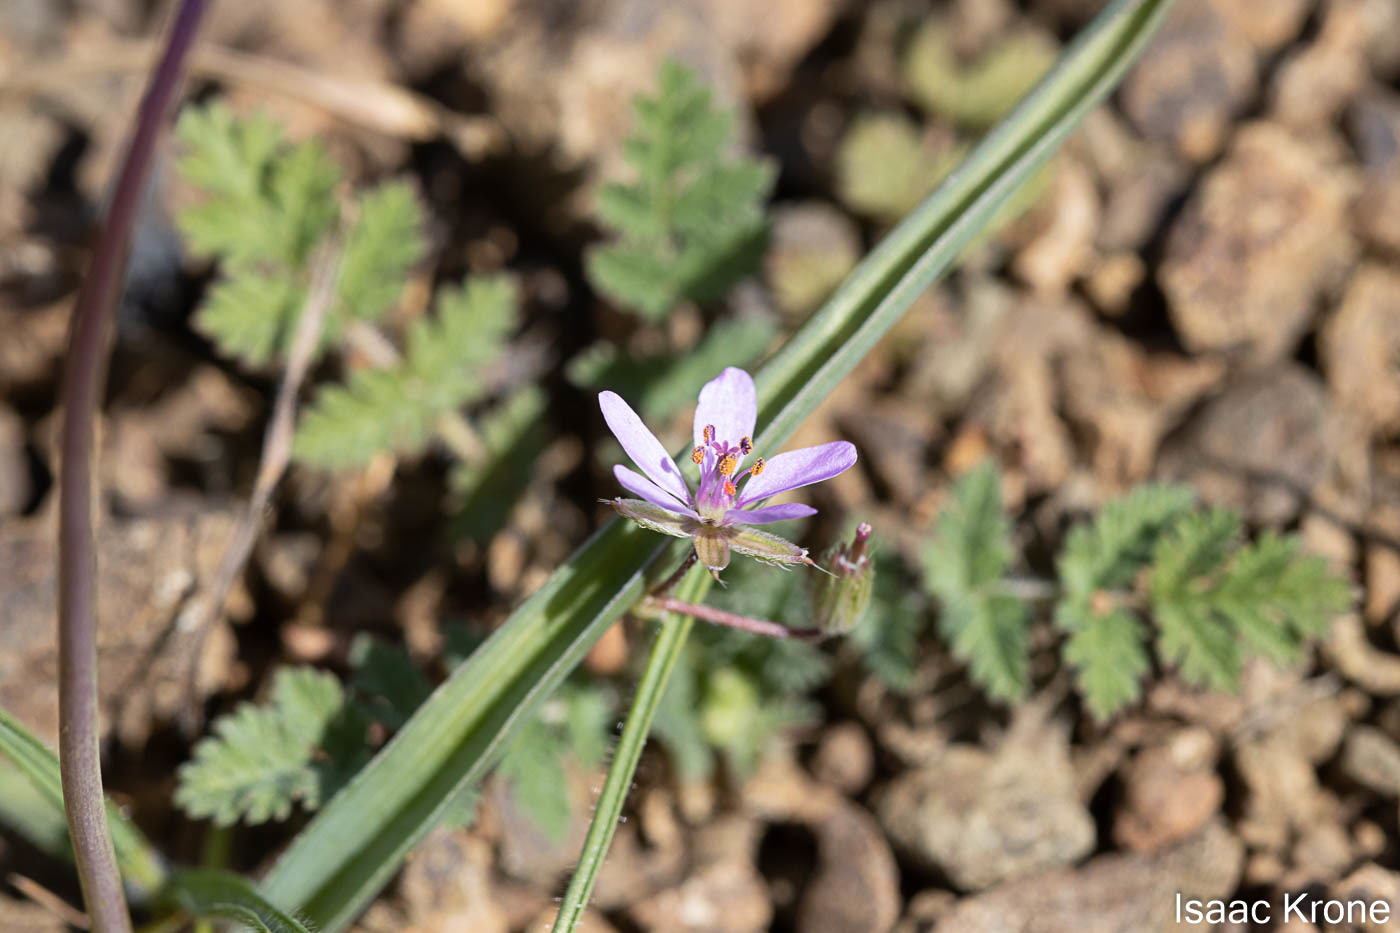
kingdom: Plantae
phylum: Tracheophyta
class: Magnoliopsida
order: Geraniales
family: Geraniaceae
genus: Erodium
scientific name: Erodium cicutarium
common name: Common stork's-bill
